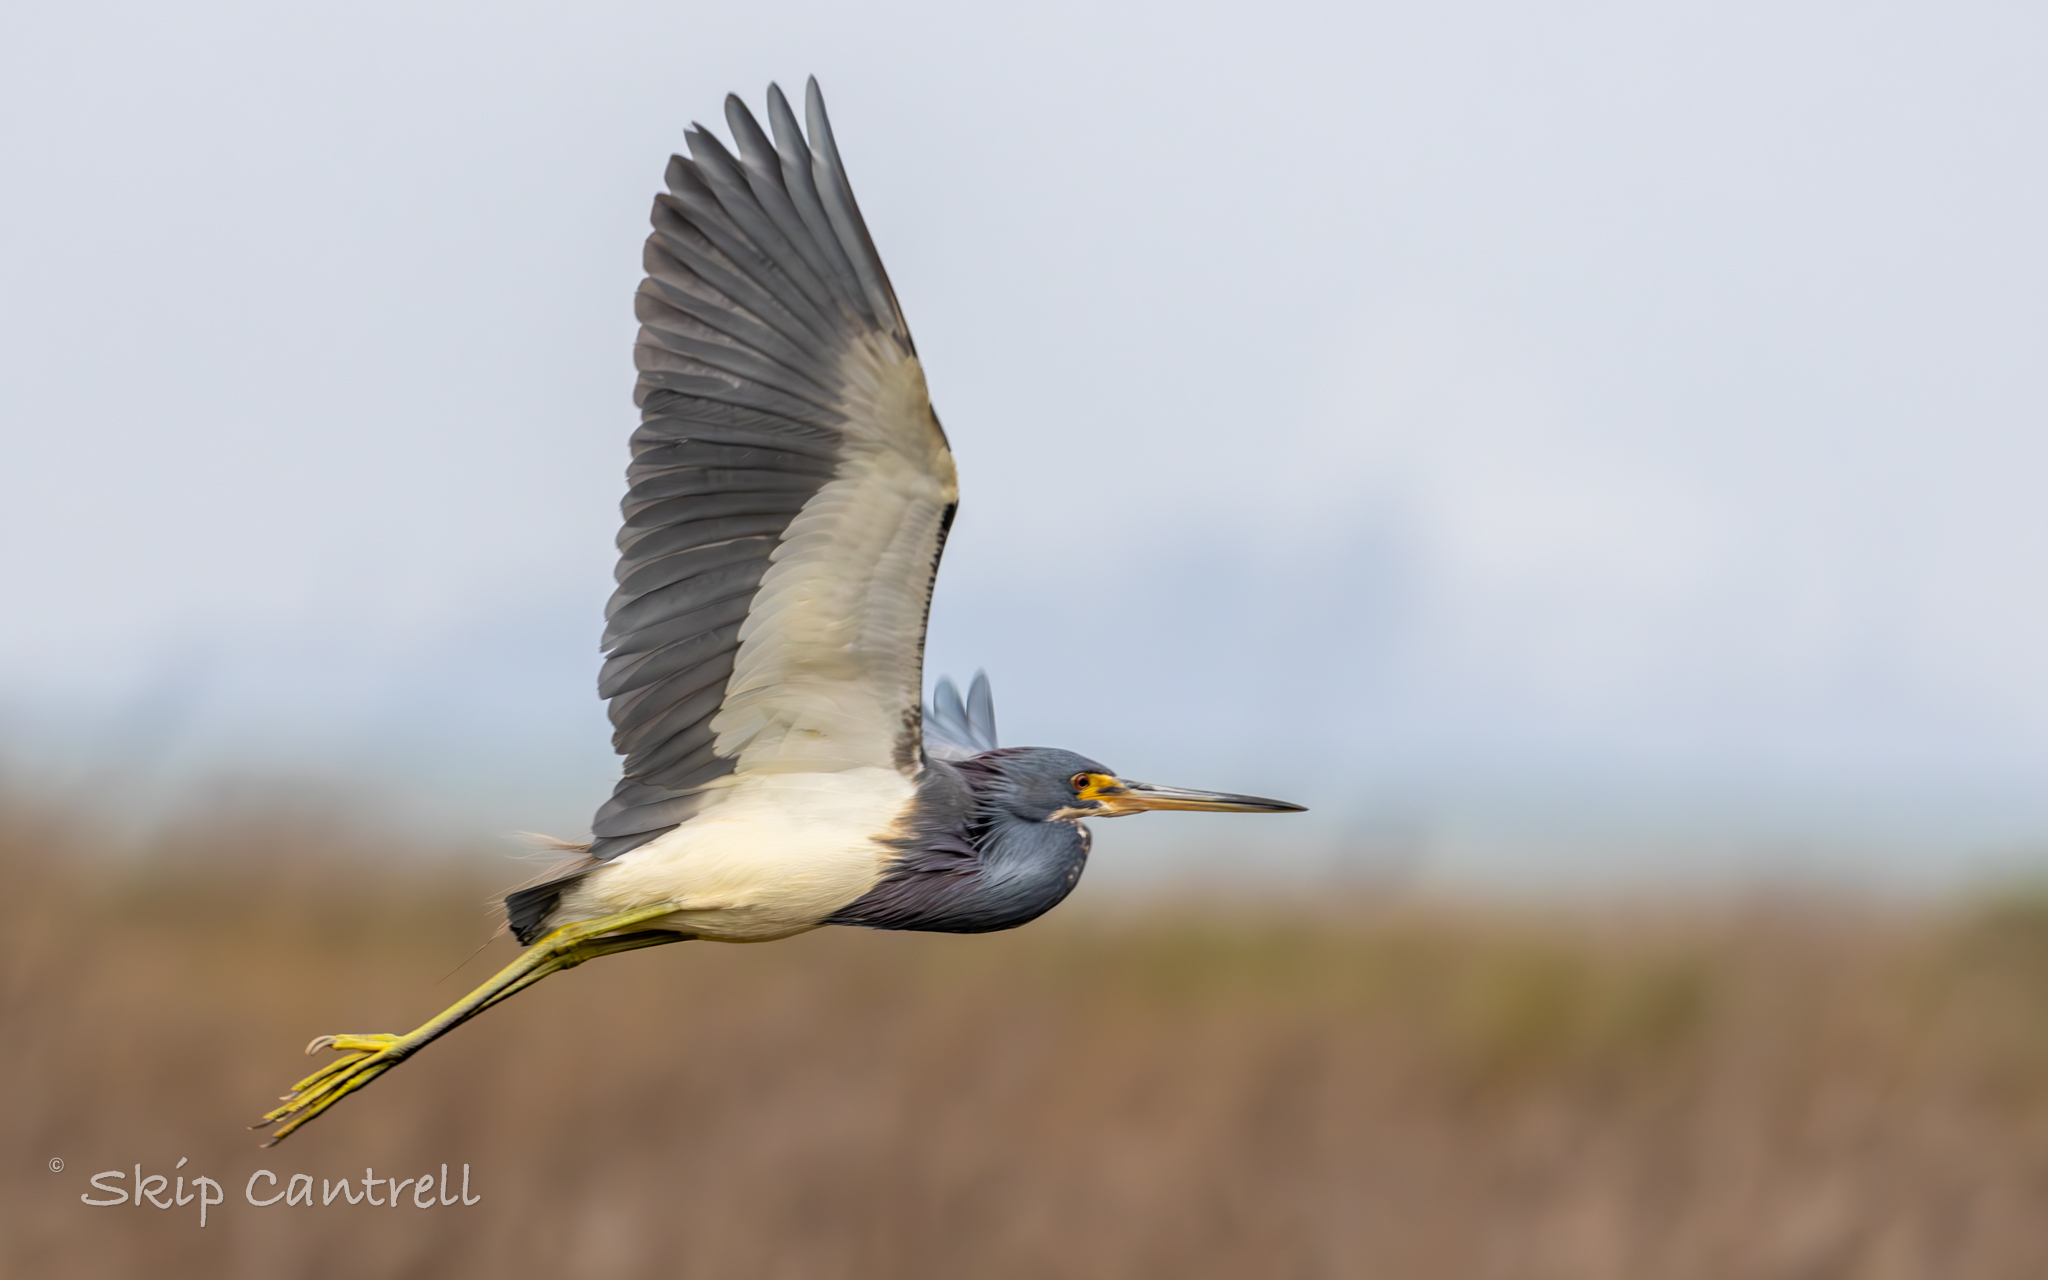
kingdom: Animalia
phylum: Chordata
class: Aves
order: Pelecaniformes
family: Ardeidae
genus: Egretta
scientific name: Egretta tricolor
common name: Tricolored heron
